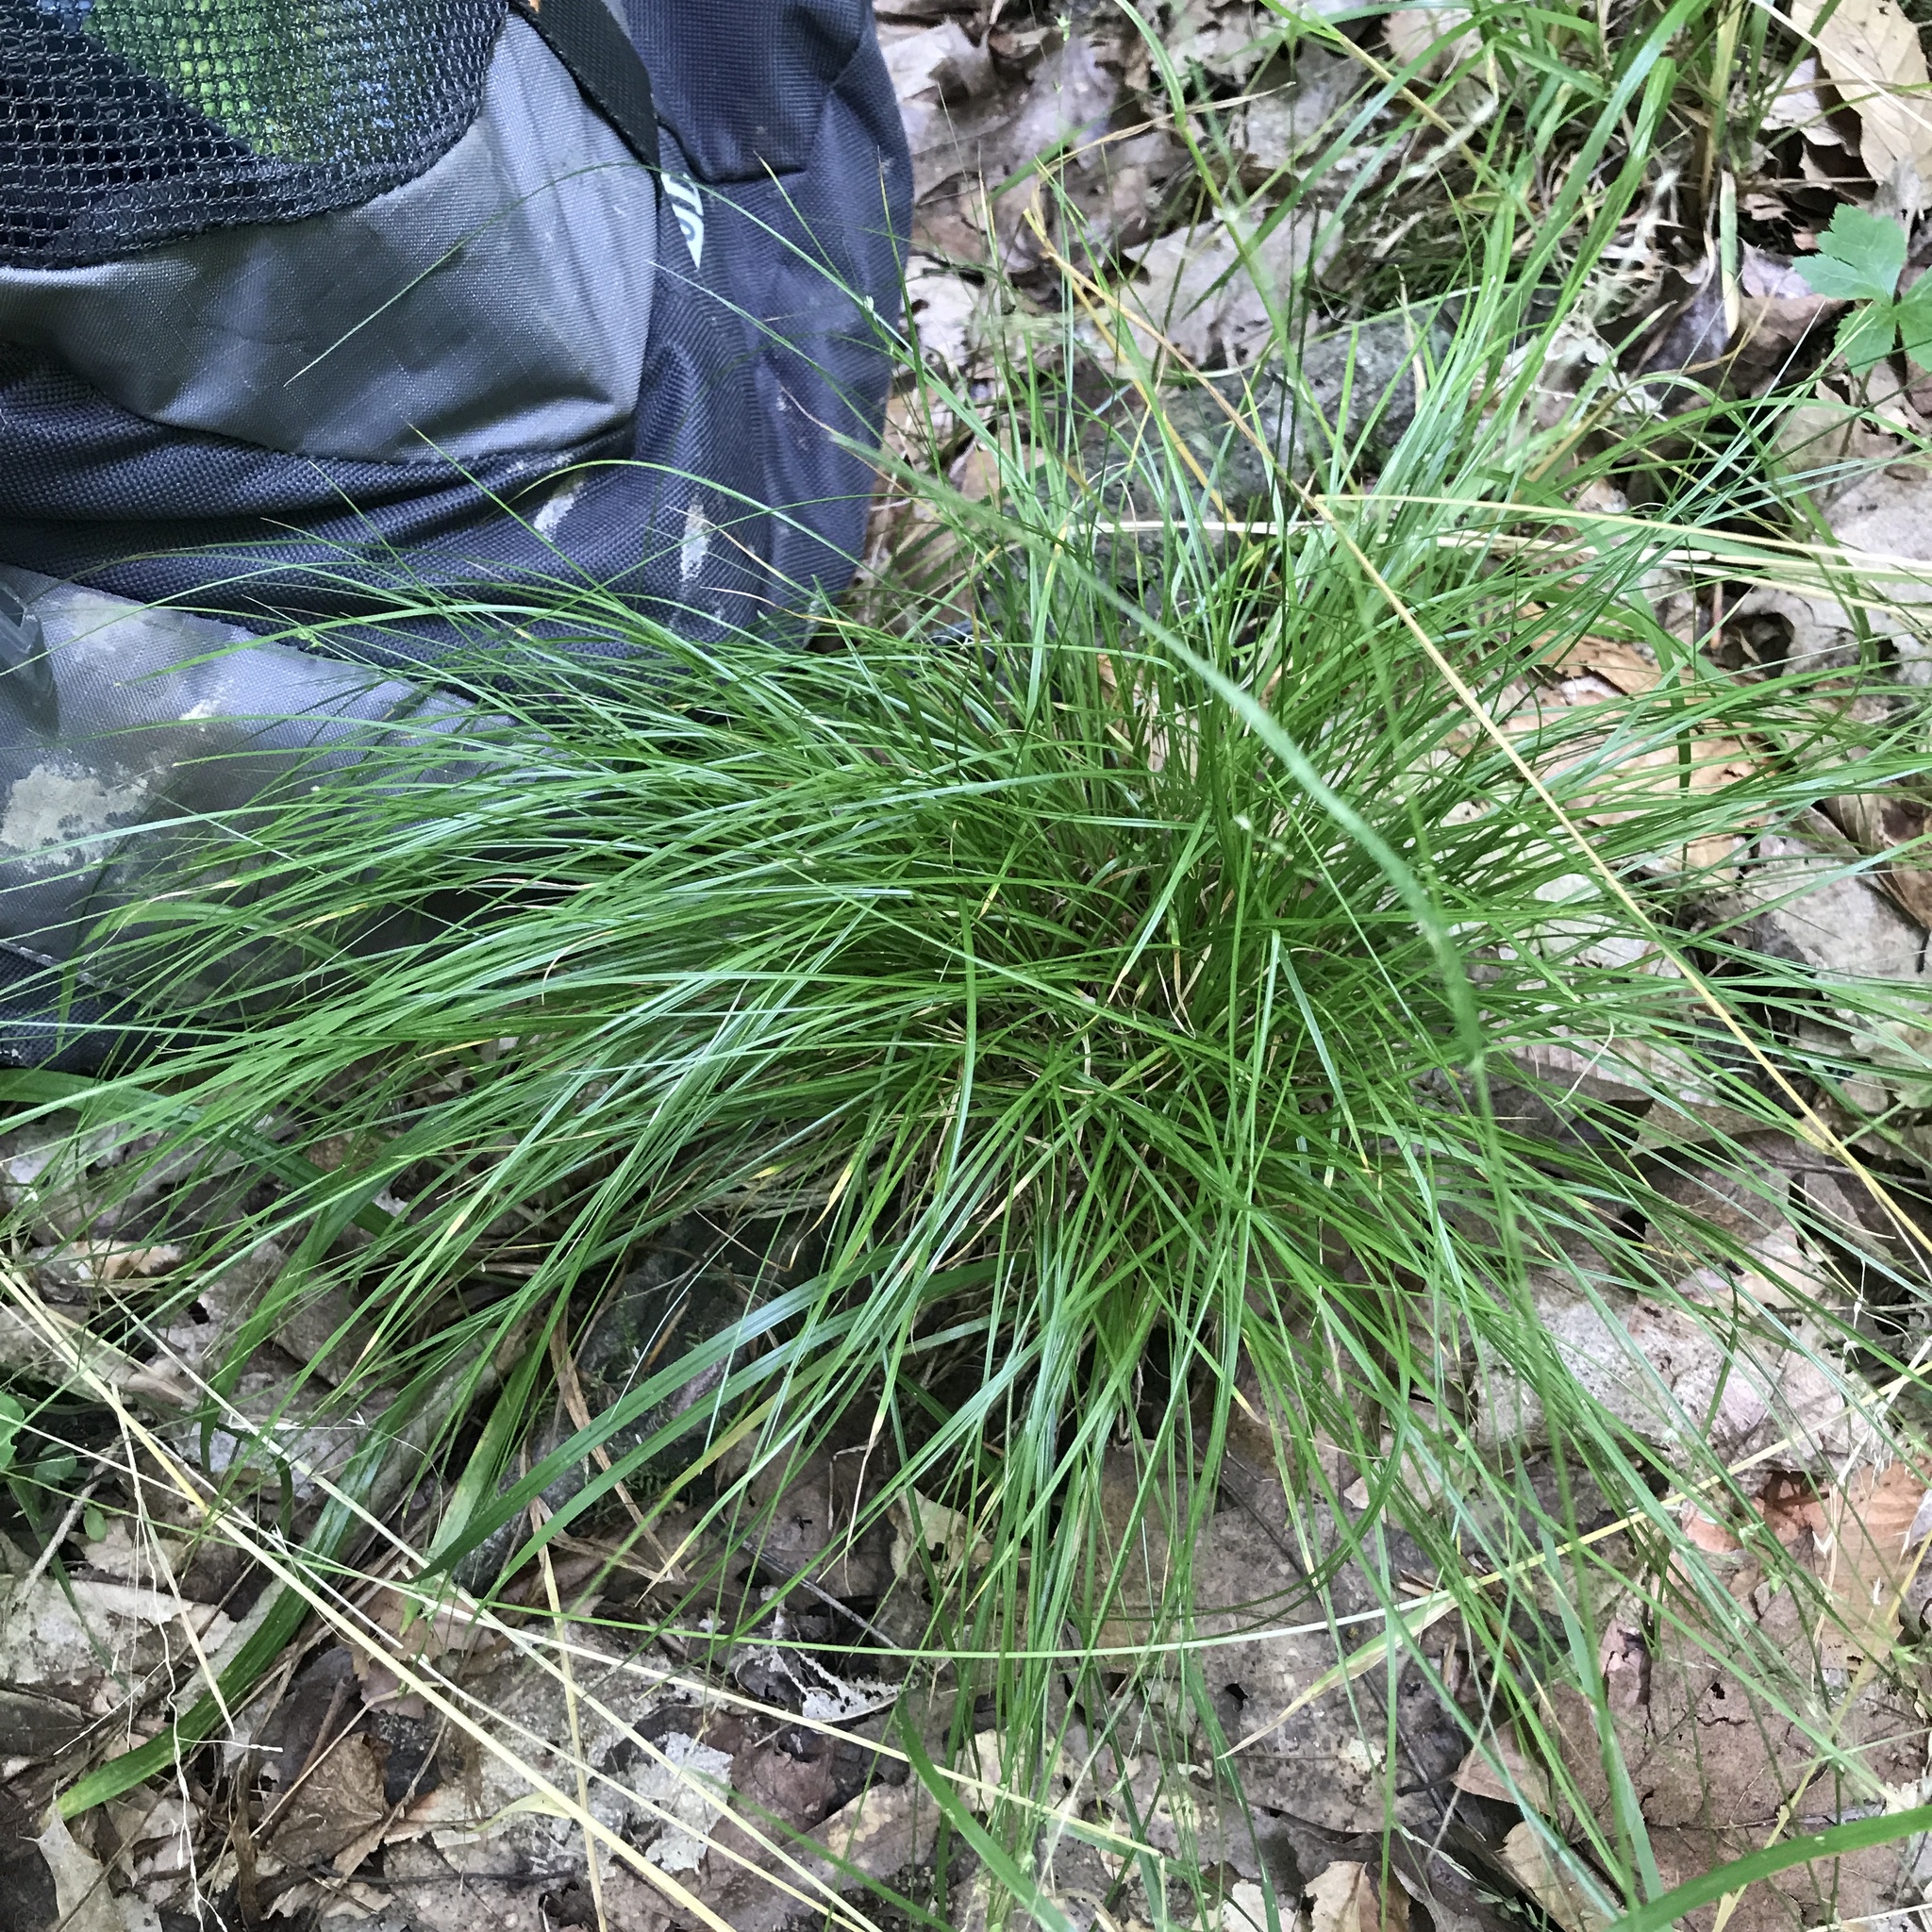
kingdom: Plantae
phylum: Tracheophyta
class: Liliopsida
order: Poales
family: Cyperaceae
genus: Carex
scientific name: Carex appalachica
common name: Appalachian sedge
